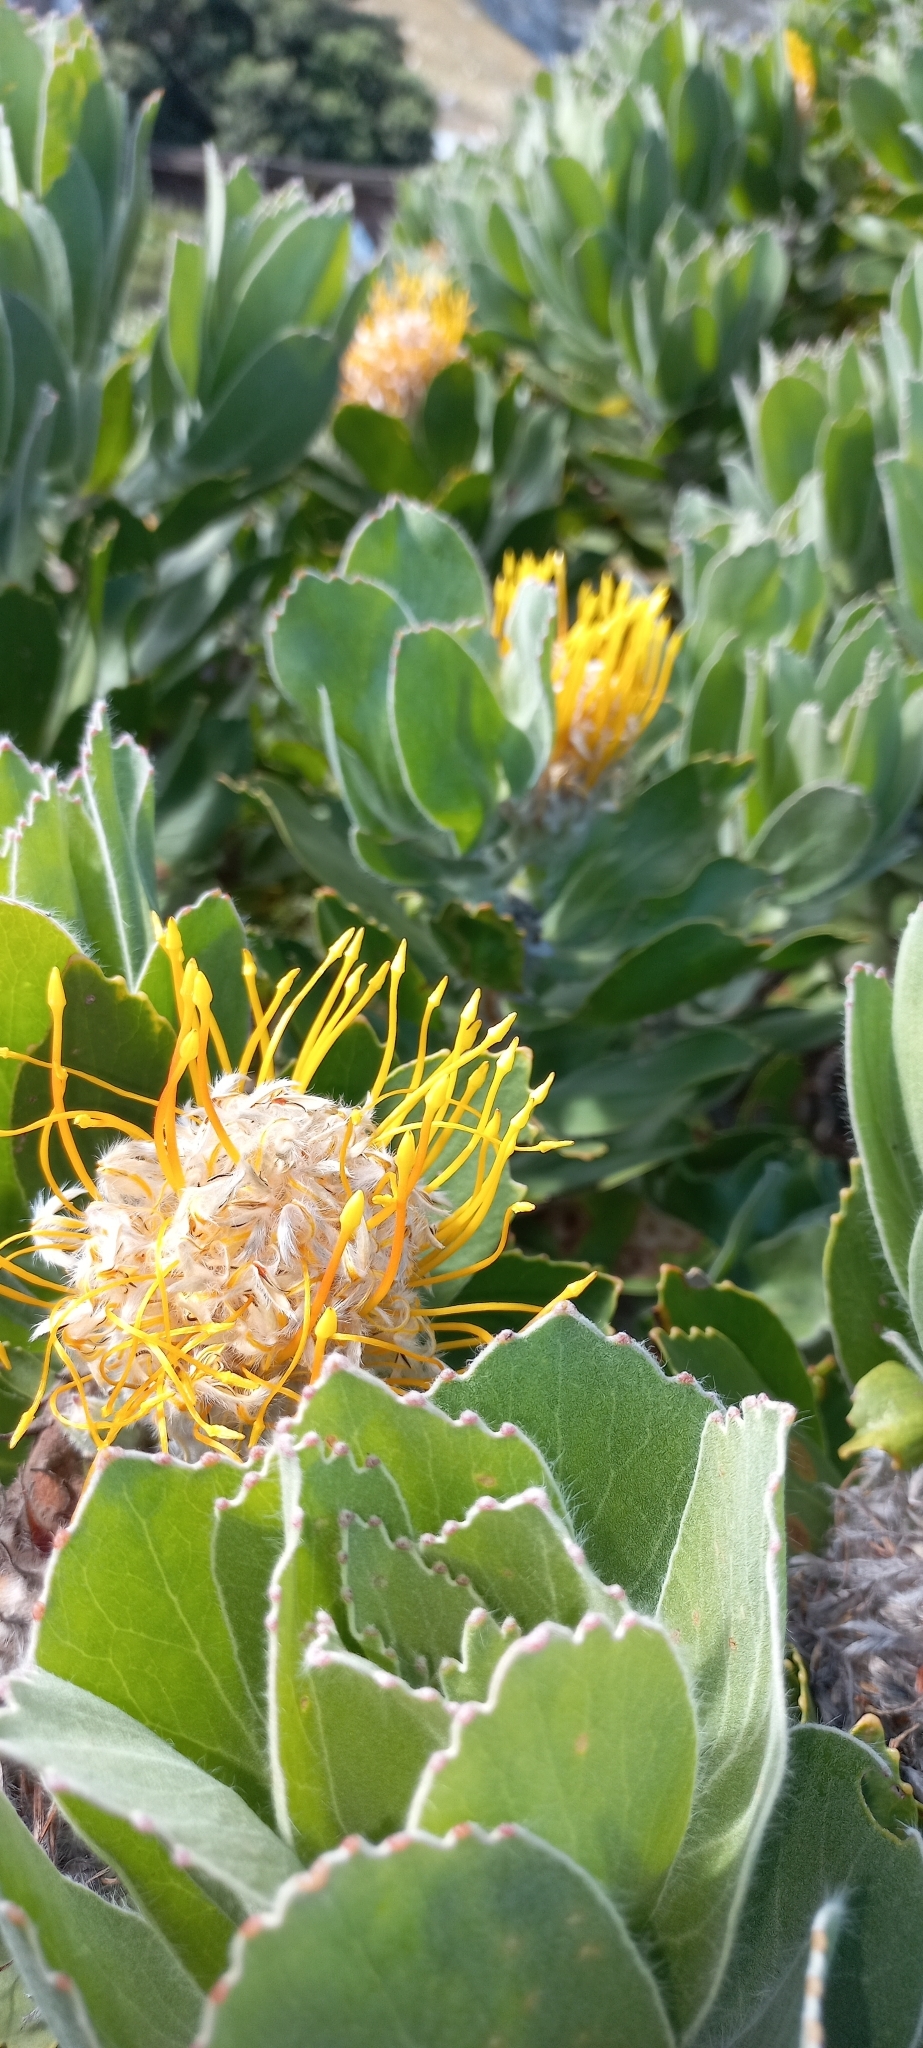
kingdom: Plantae
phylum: Tracheophyta
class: Magnoliopsida
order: Proteales
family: Proteaceae
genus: Leucospermum
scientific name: Leucospermum conocarpodendron
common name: Tree pincushion
